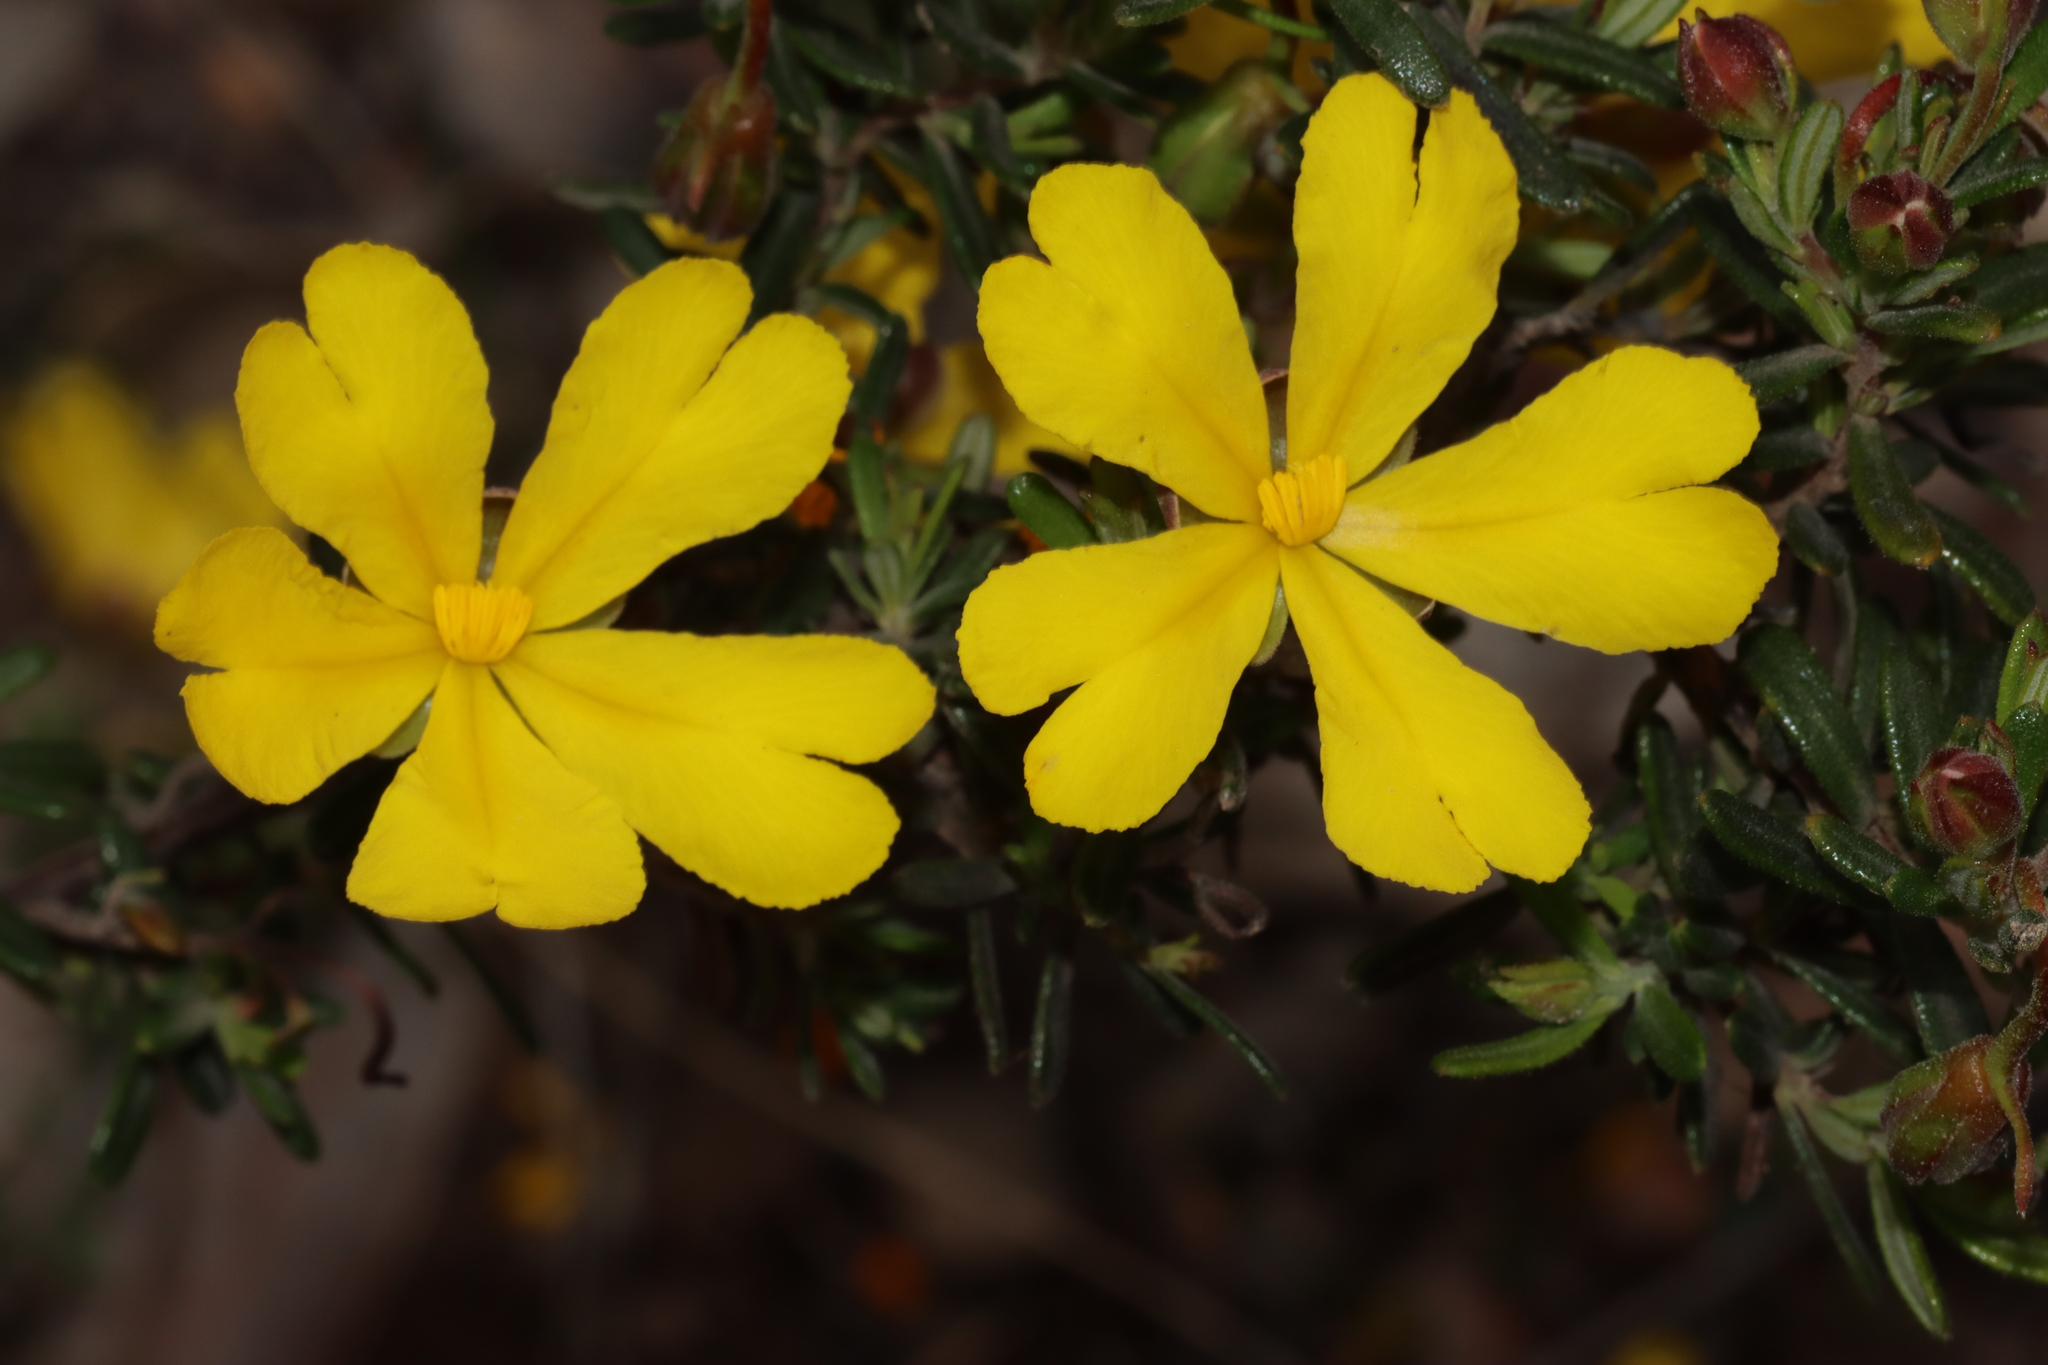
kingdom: Plantae
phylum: Tracheophyta
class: Magnoliopsida
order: Dilleniales
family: Dilleniaceae
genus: Hibbertia
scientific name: Hibbertia hypericoides
